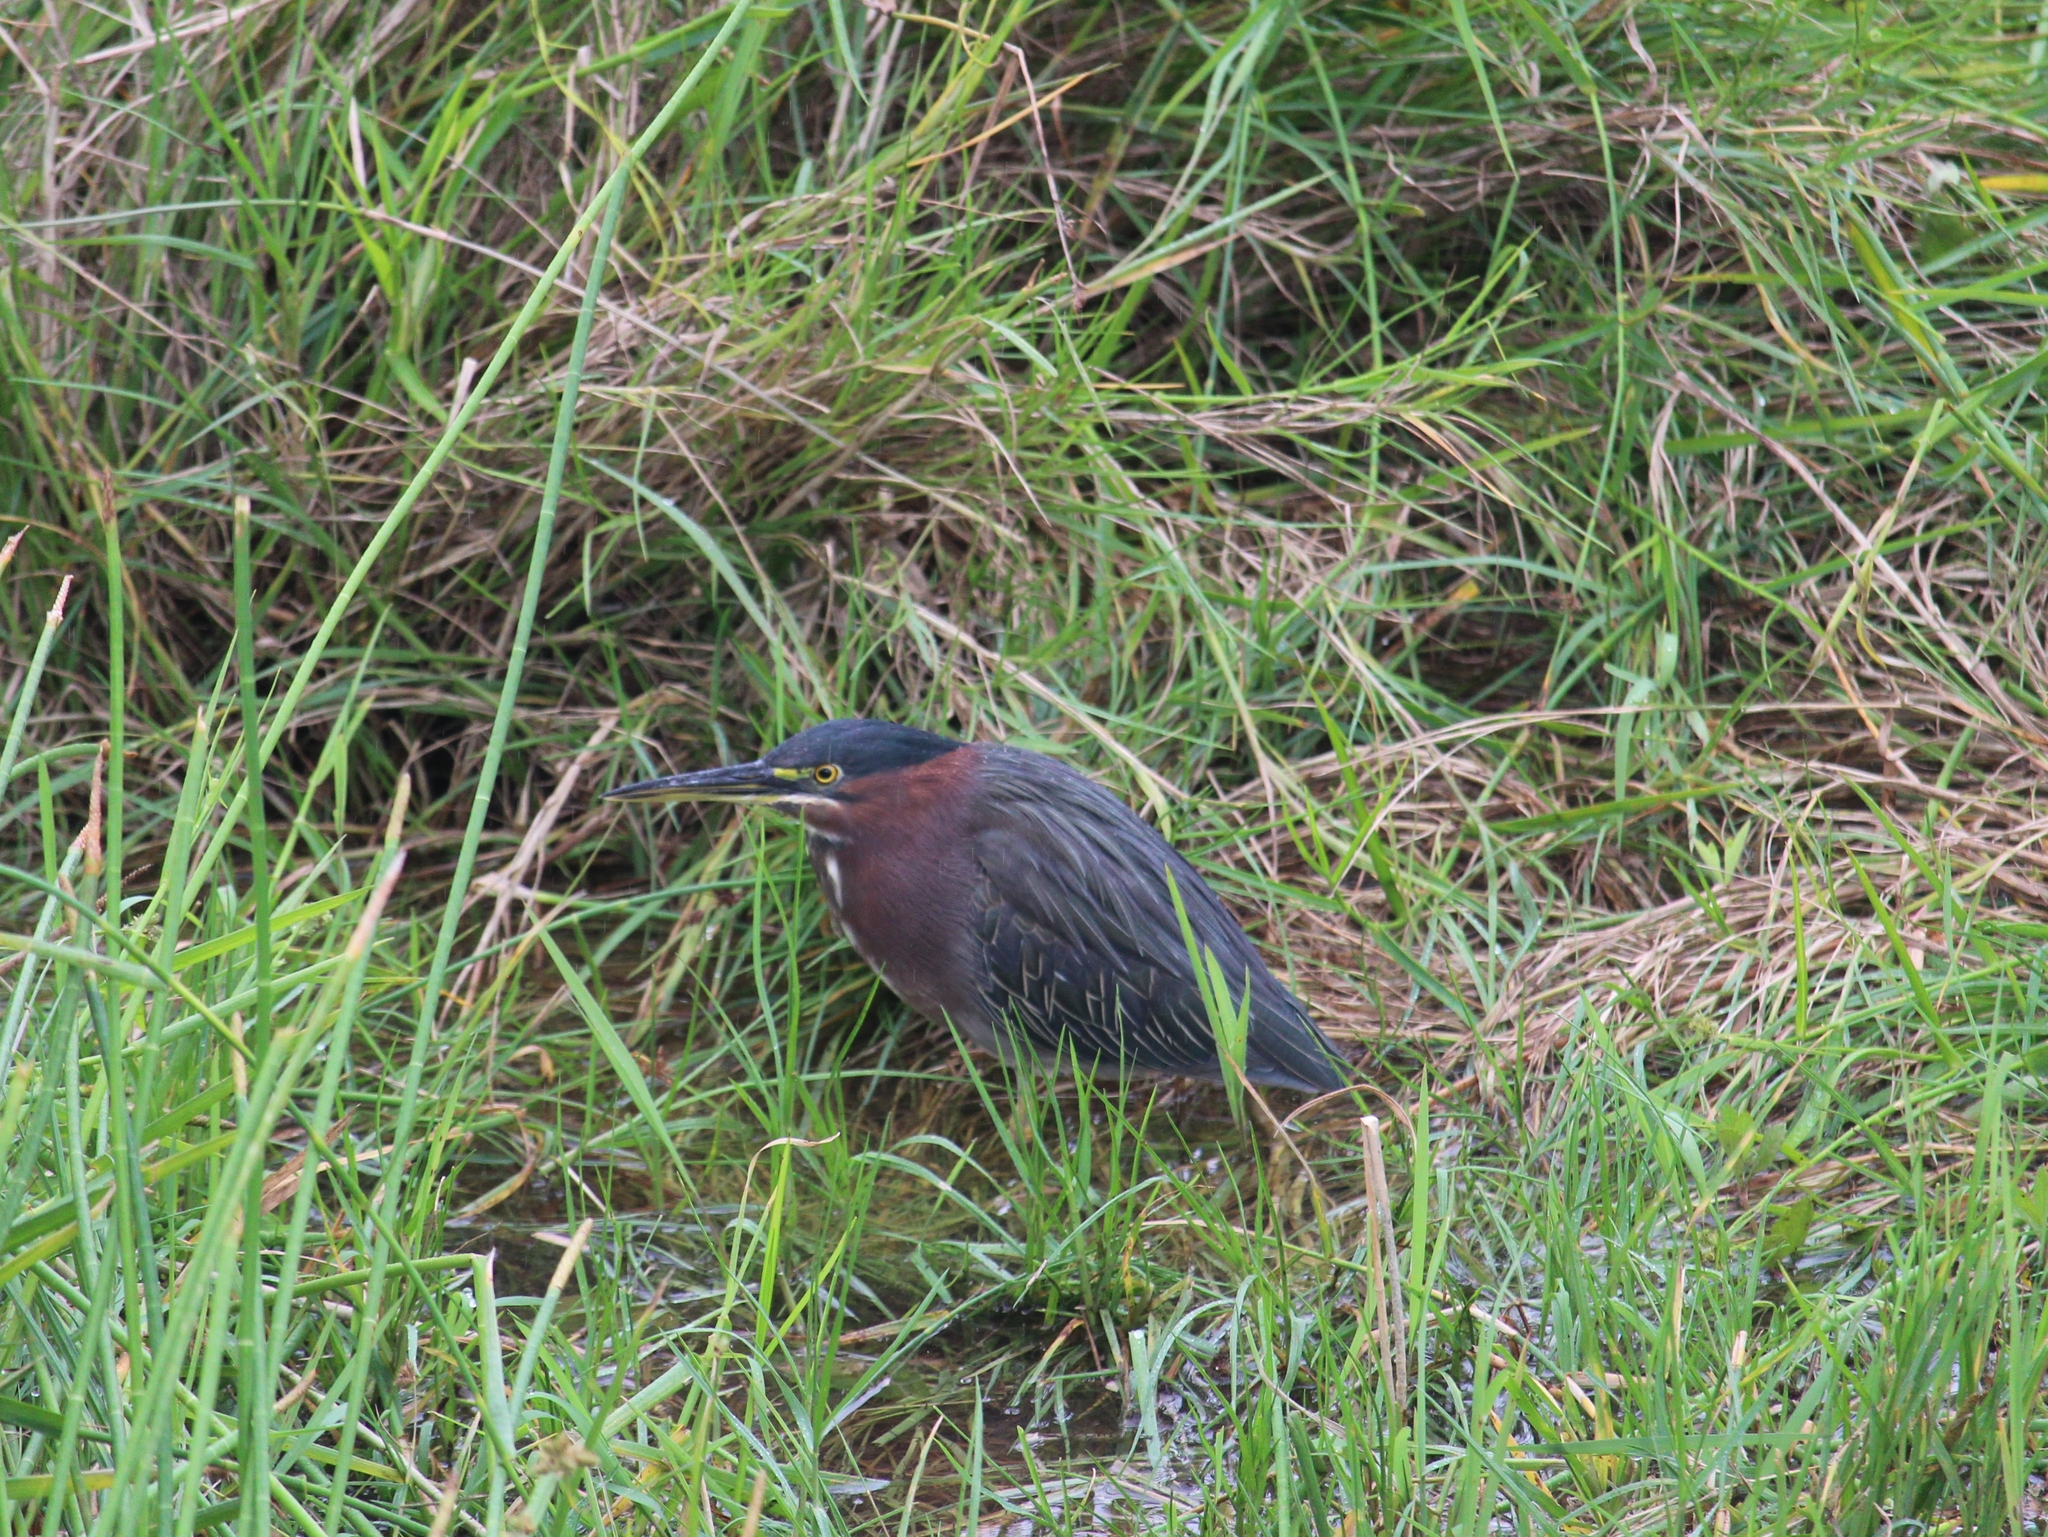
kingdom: Animalia
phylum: Chordata
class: Aves
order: Pelecaniformes
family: Ardeidae
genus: Butorides
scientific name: Butorides virescens
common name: Green heron
